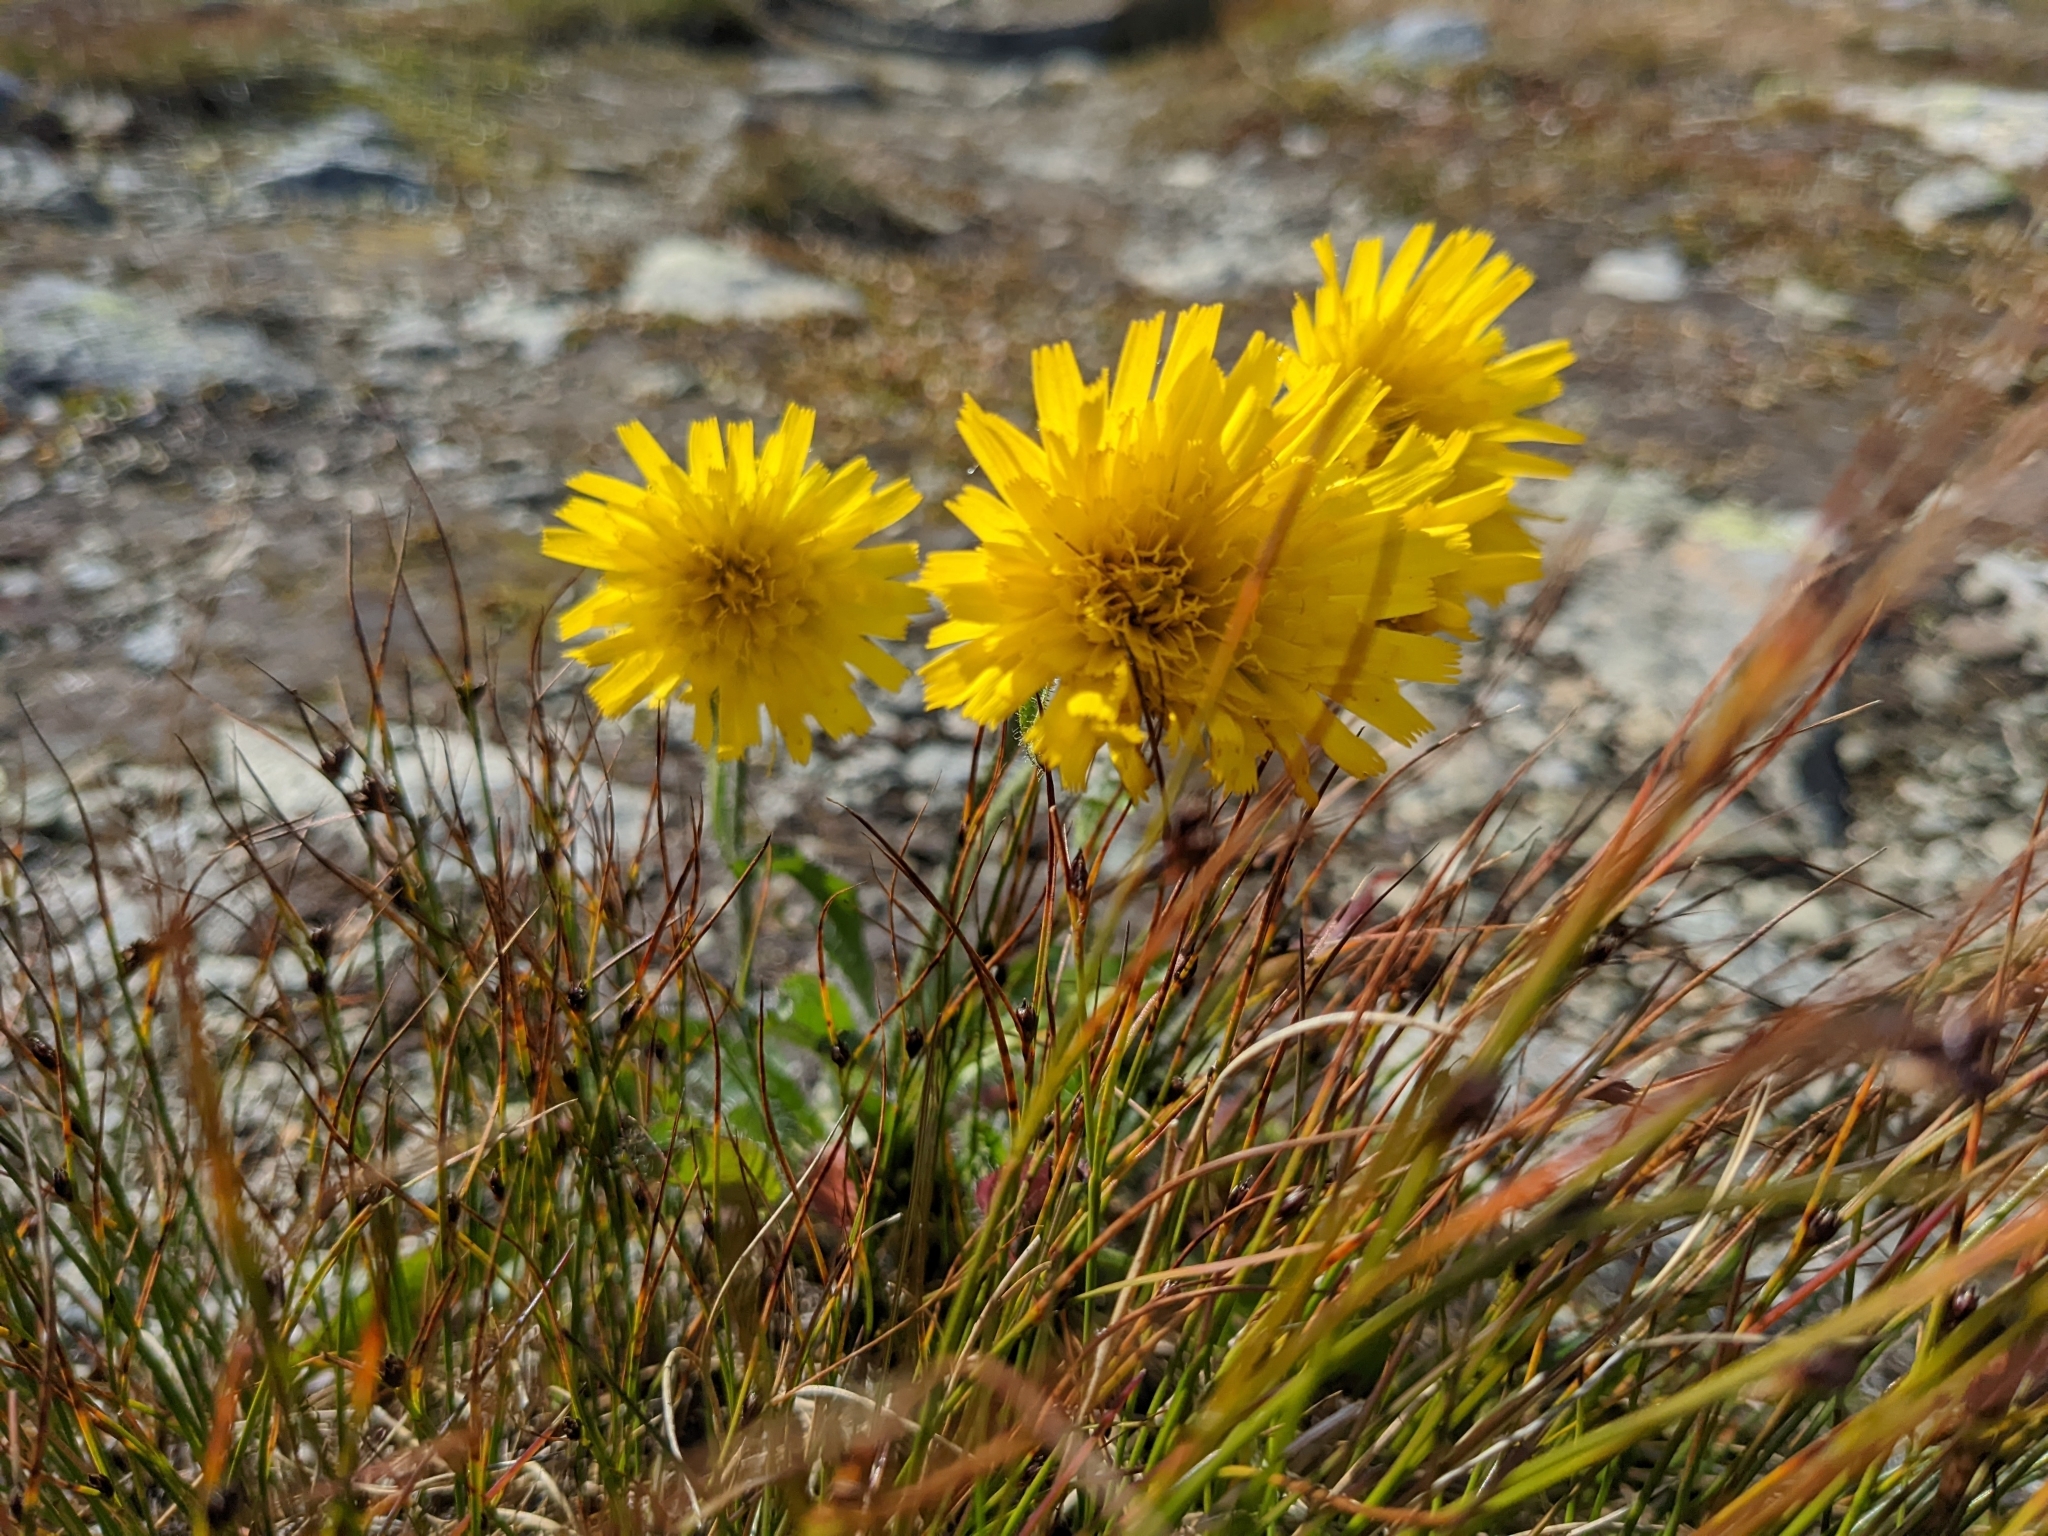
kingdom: Plantae
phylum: Tracheophyta
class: Magnoliopsida
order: Asterales
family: Asteraceae
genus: Hieracium
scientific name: Hieracium alpinum
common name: Alpine hawkweed
